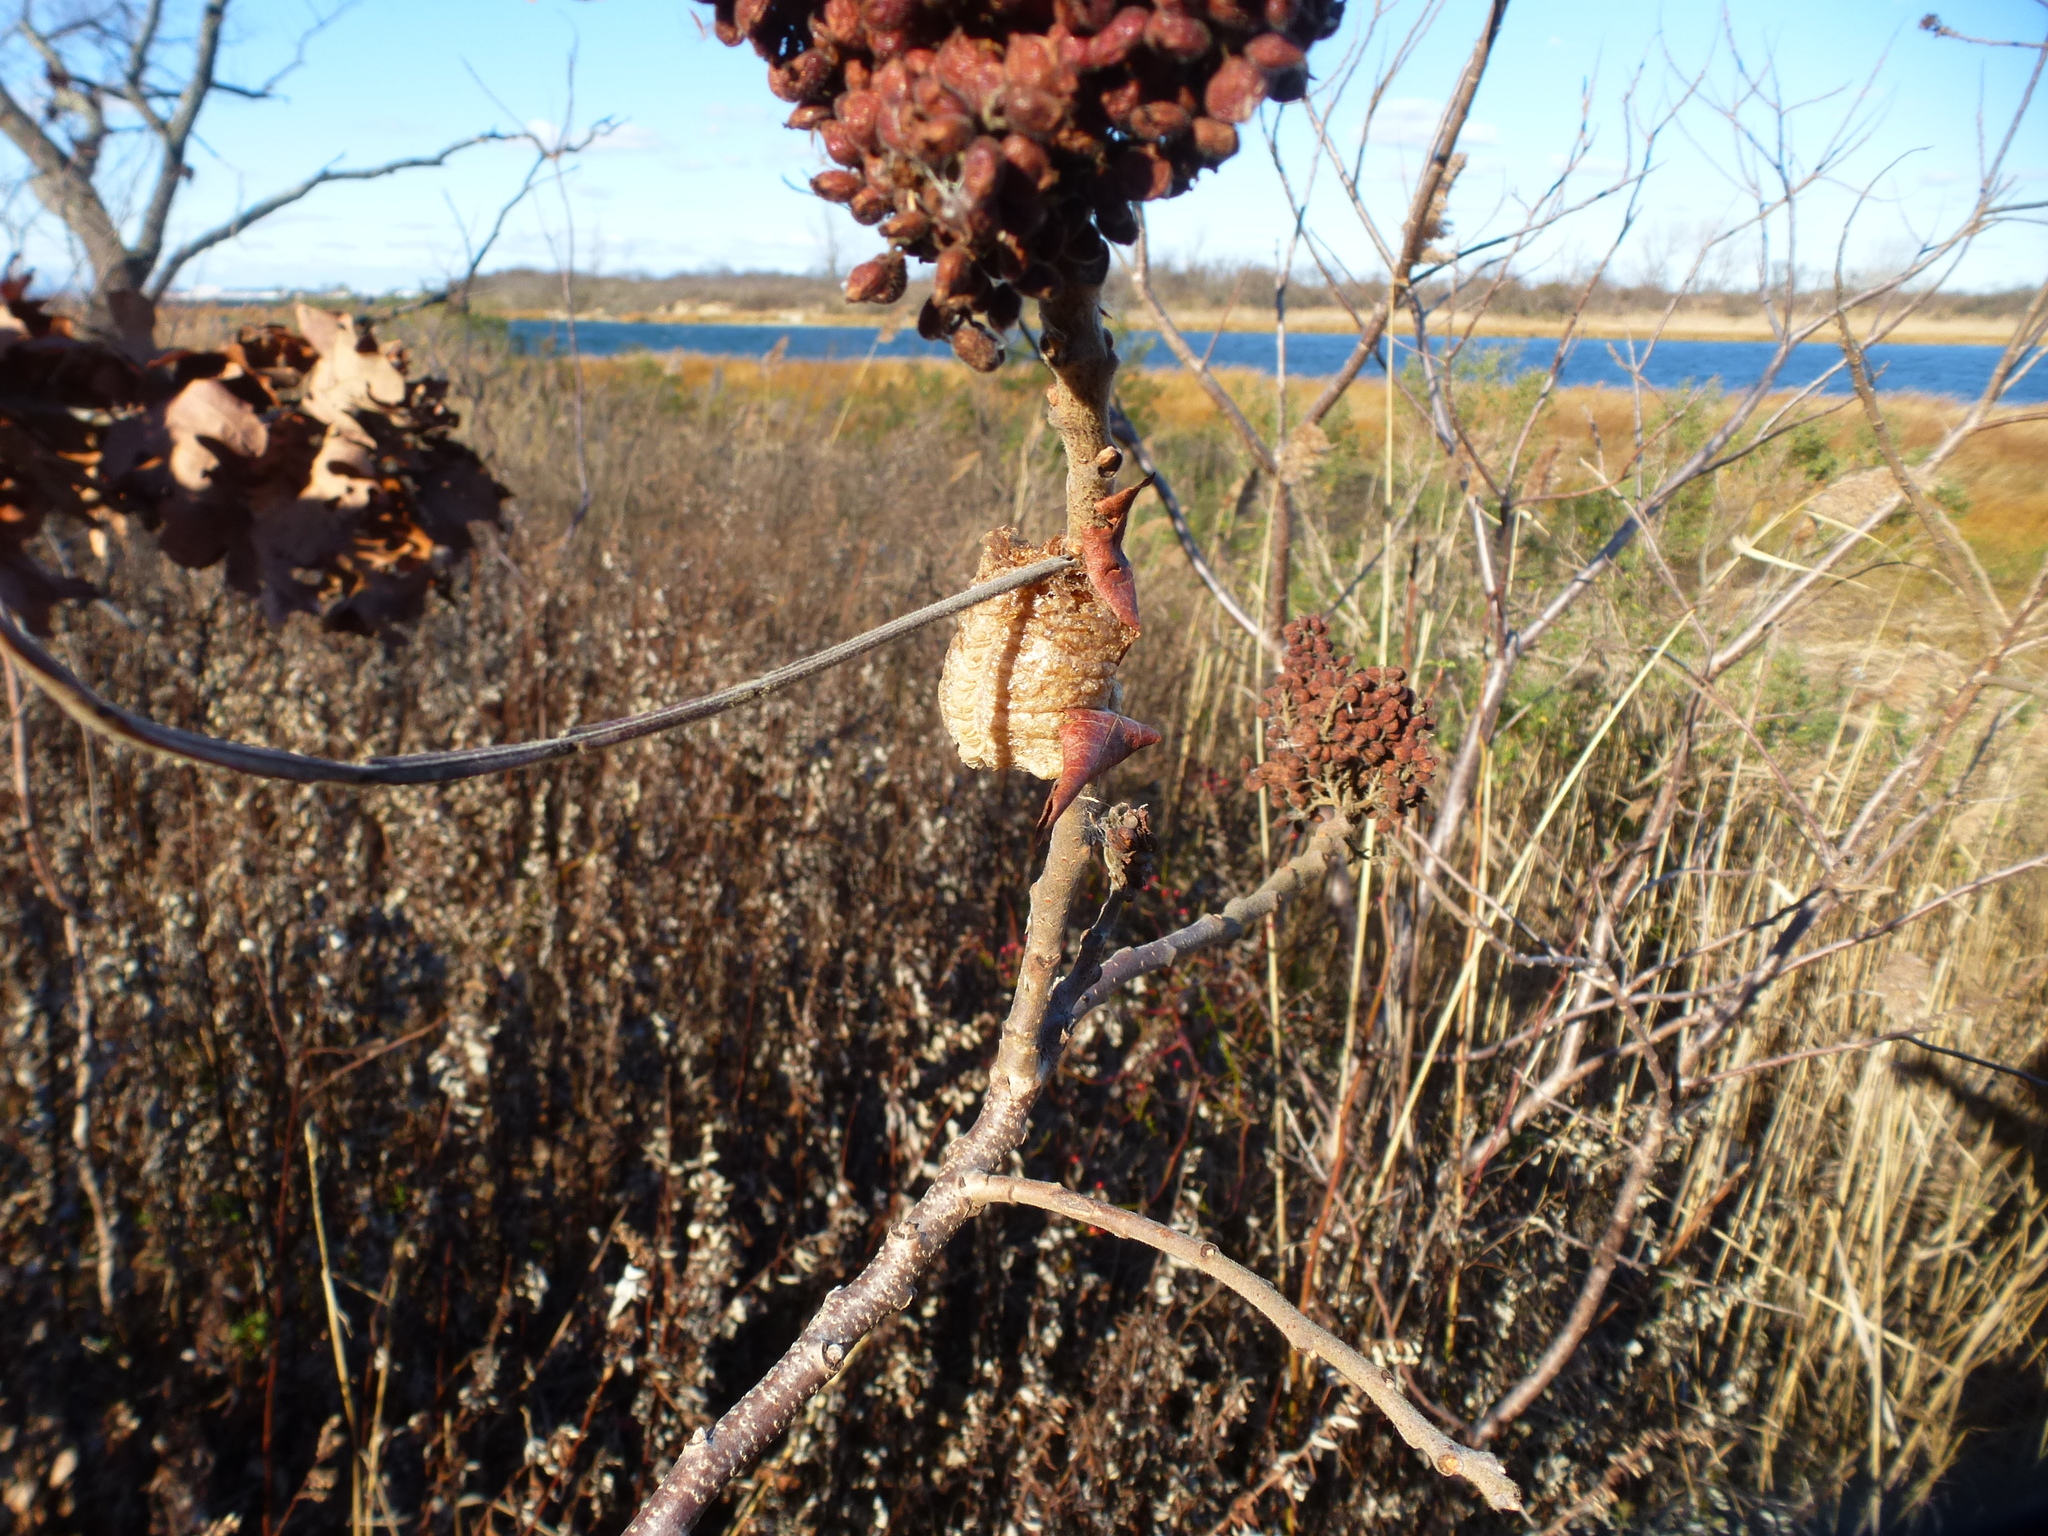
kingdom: Animalia
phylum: Arthropoda
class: Insecta
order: Mantodea
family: Mantidae
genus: Tenodera
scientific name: Tenodera sinensis
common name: Chinese mantis
